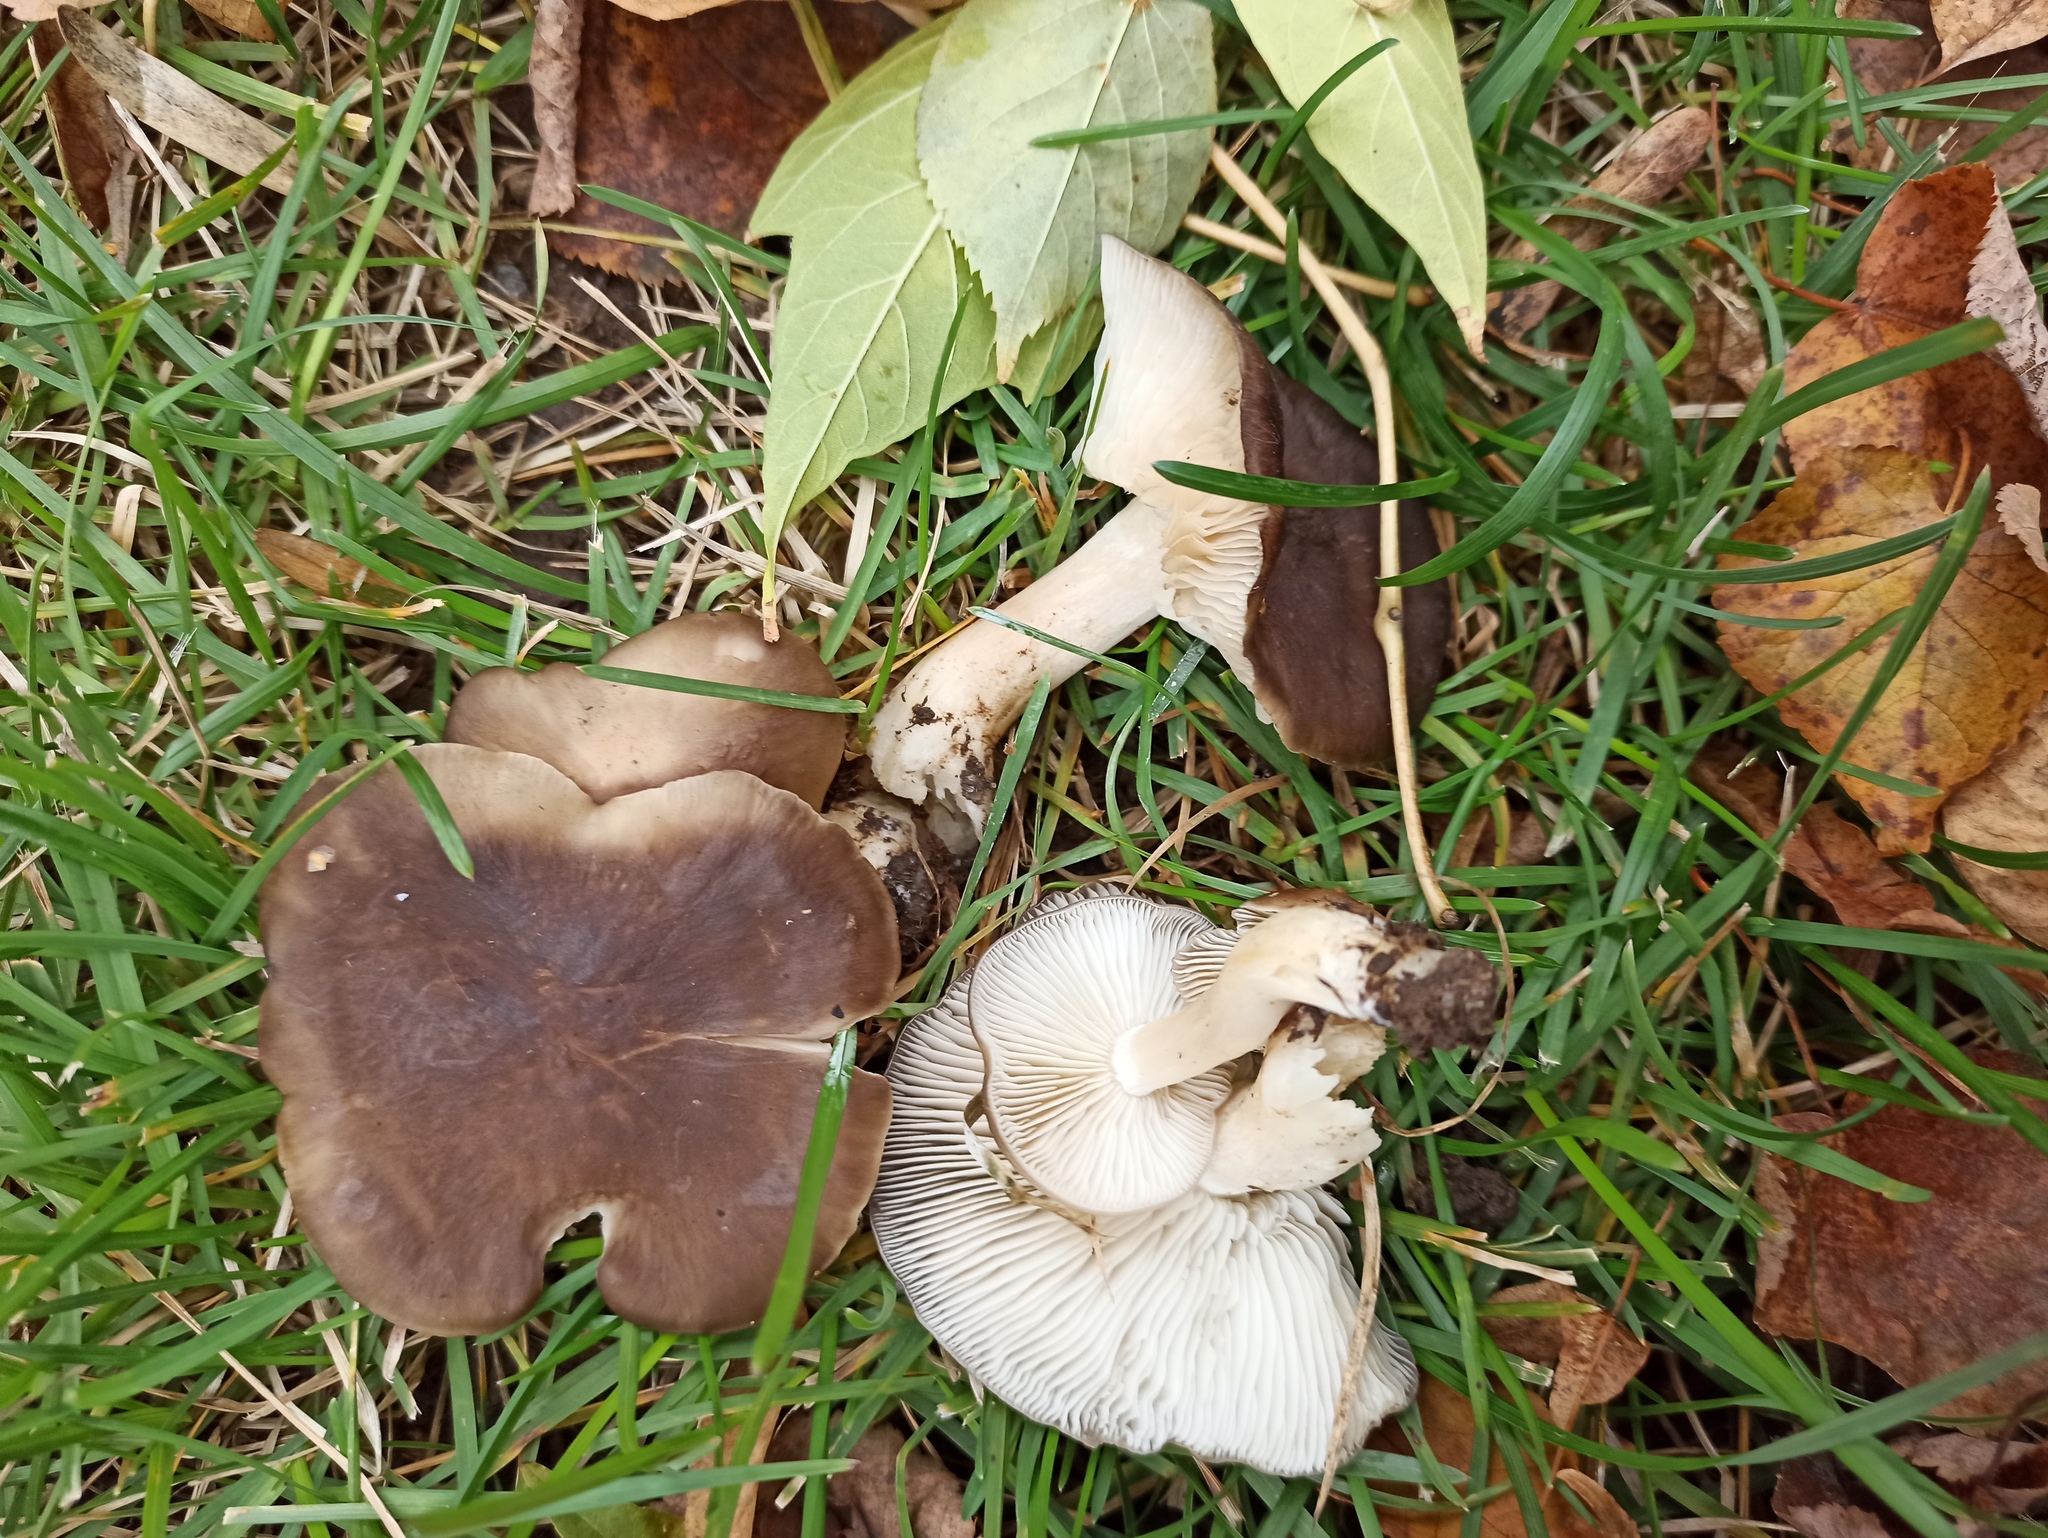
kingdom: Fungi
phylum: Basidiomycota
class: Agaricomycetes
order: Agaricales
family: Lyophyllaceae
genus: Lyophyllum
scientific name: Lyophyllum decastes
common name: Clustered domecap
